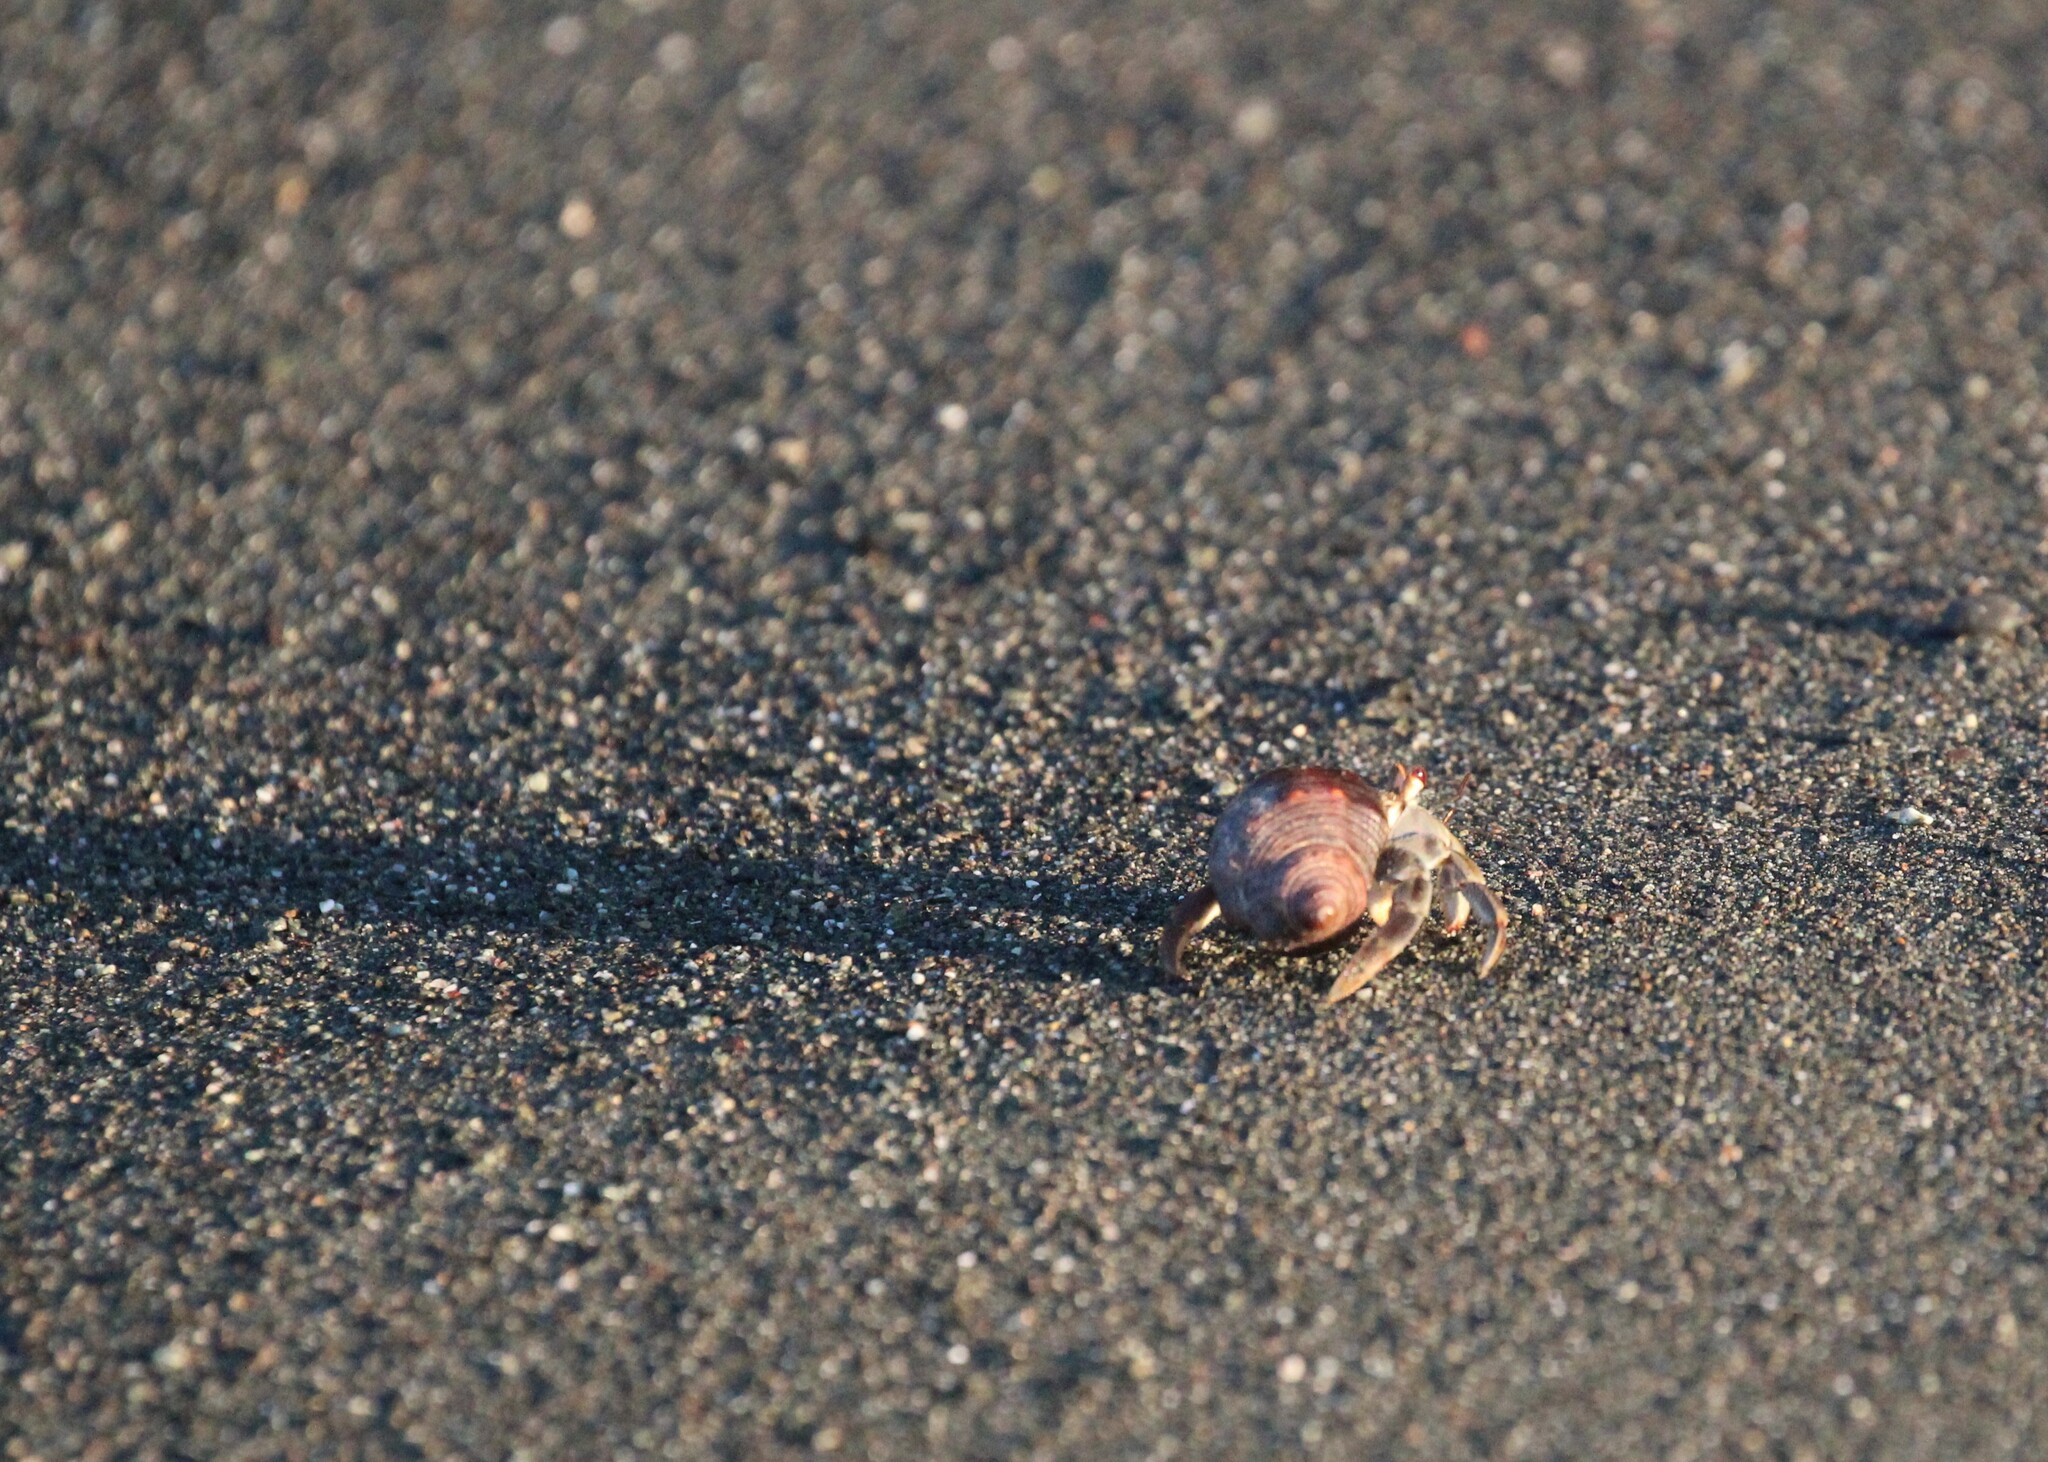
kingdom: Animalia
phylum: Arthropoda
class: Malacostraca
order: Decapoda
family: Coenobitidae
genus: Coenobita
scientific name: Coenobita compressus
